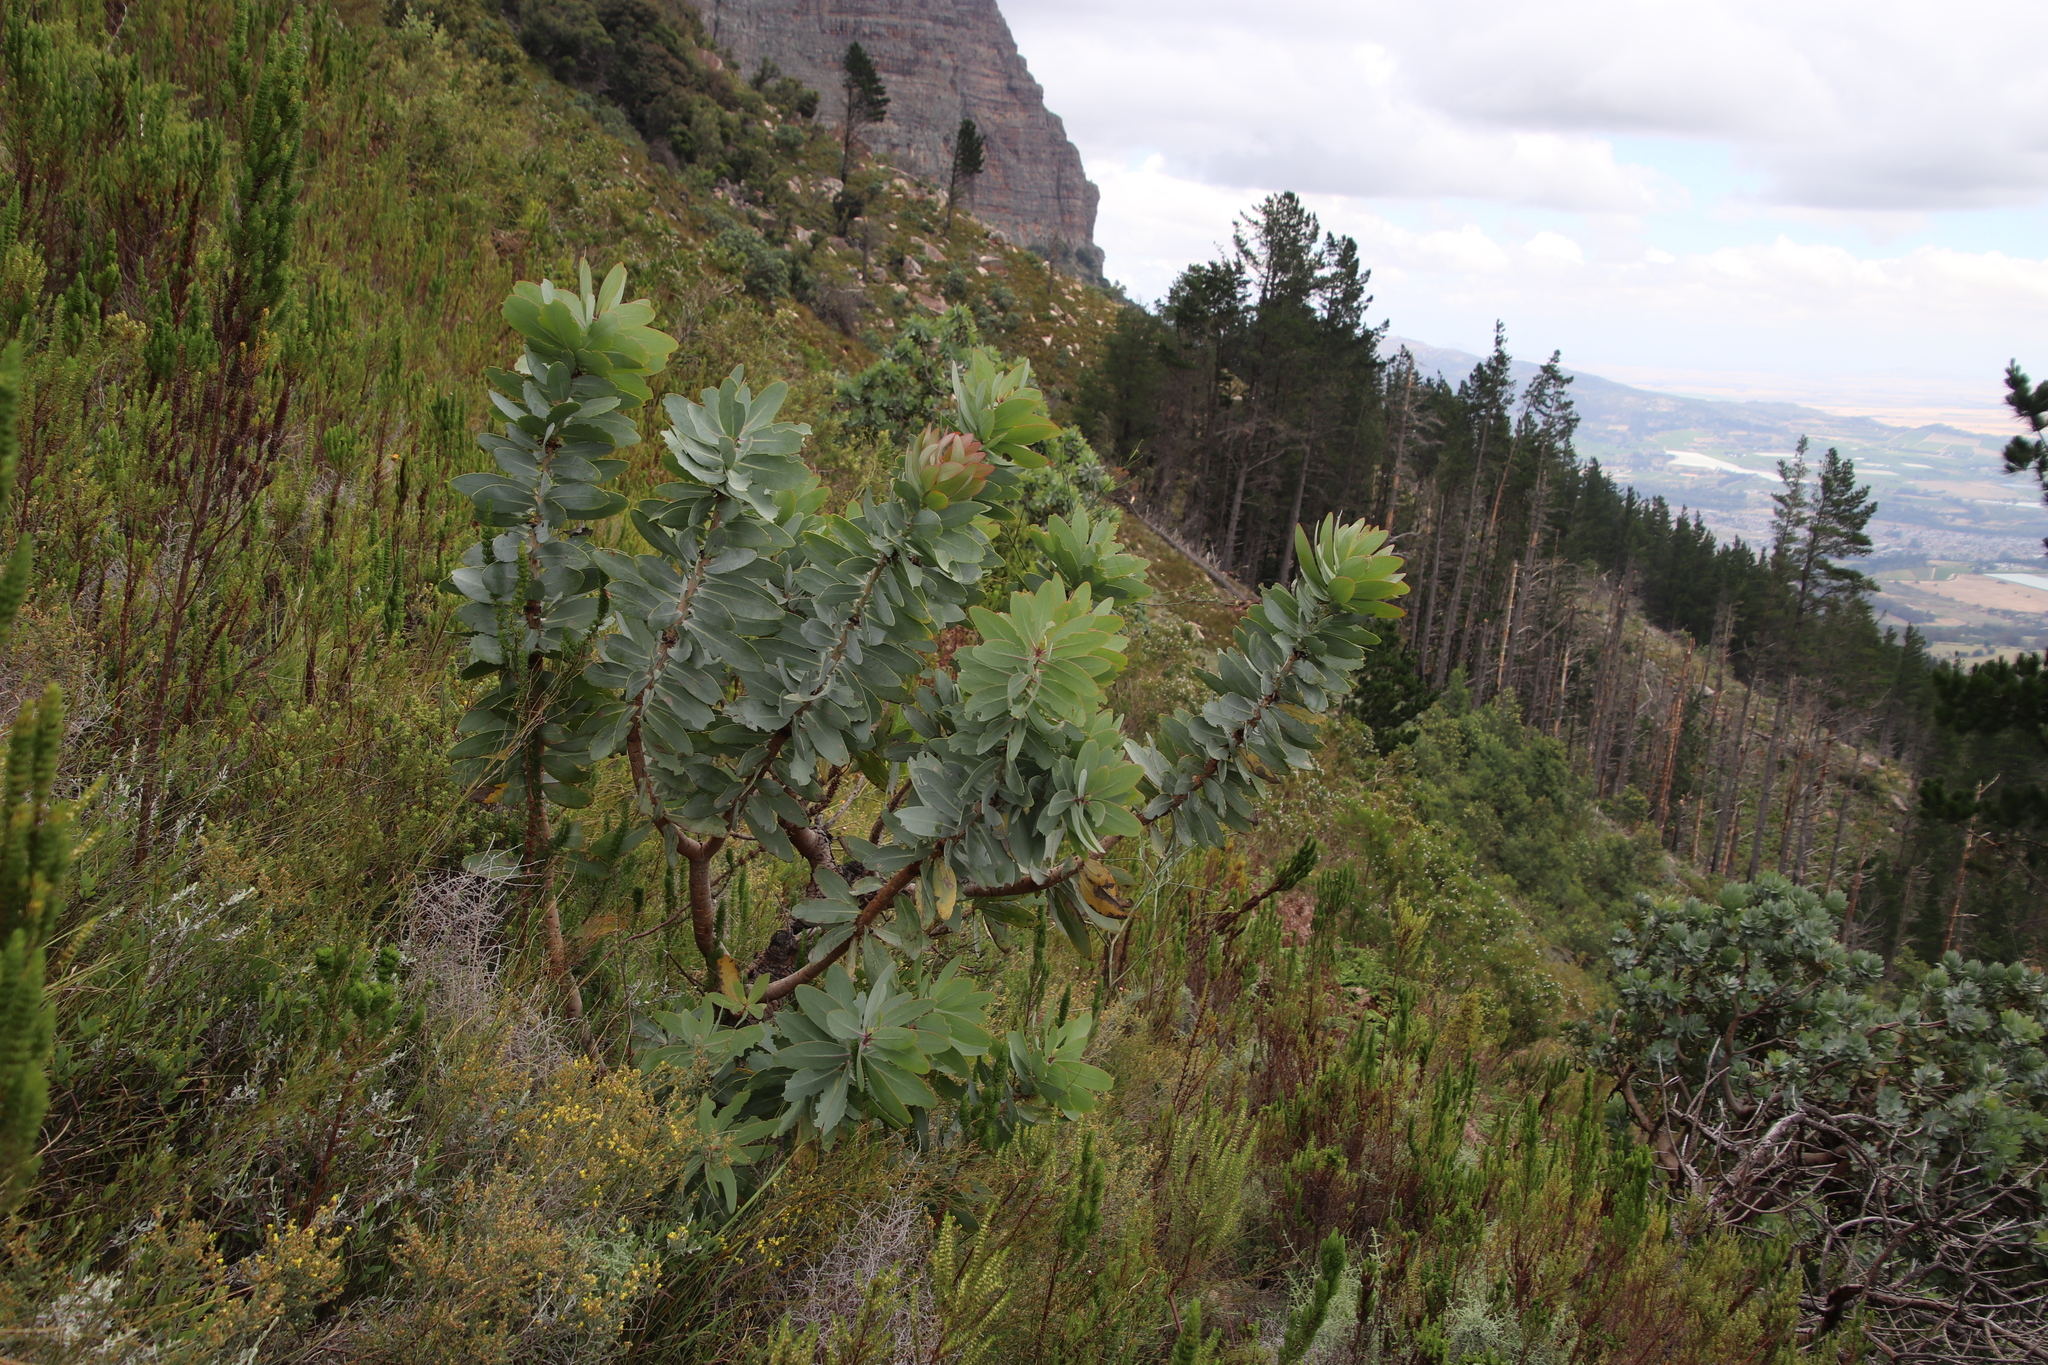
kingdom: Plantae
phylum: Tracheophyta
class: Magnoliopsida
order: Proteales
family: Proteaceae
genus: Protea
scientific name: Protea nitida
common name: Tree protea
